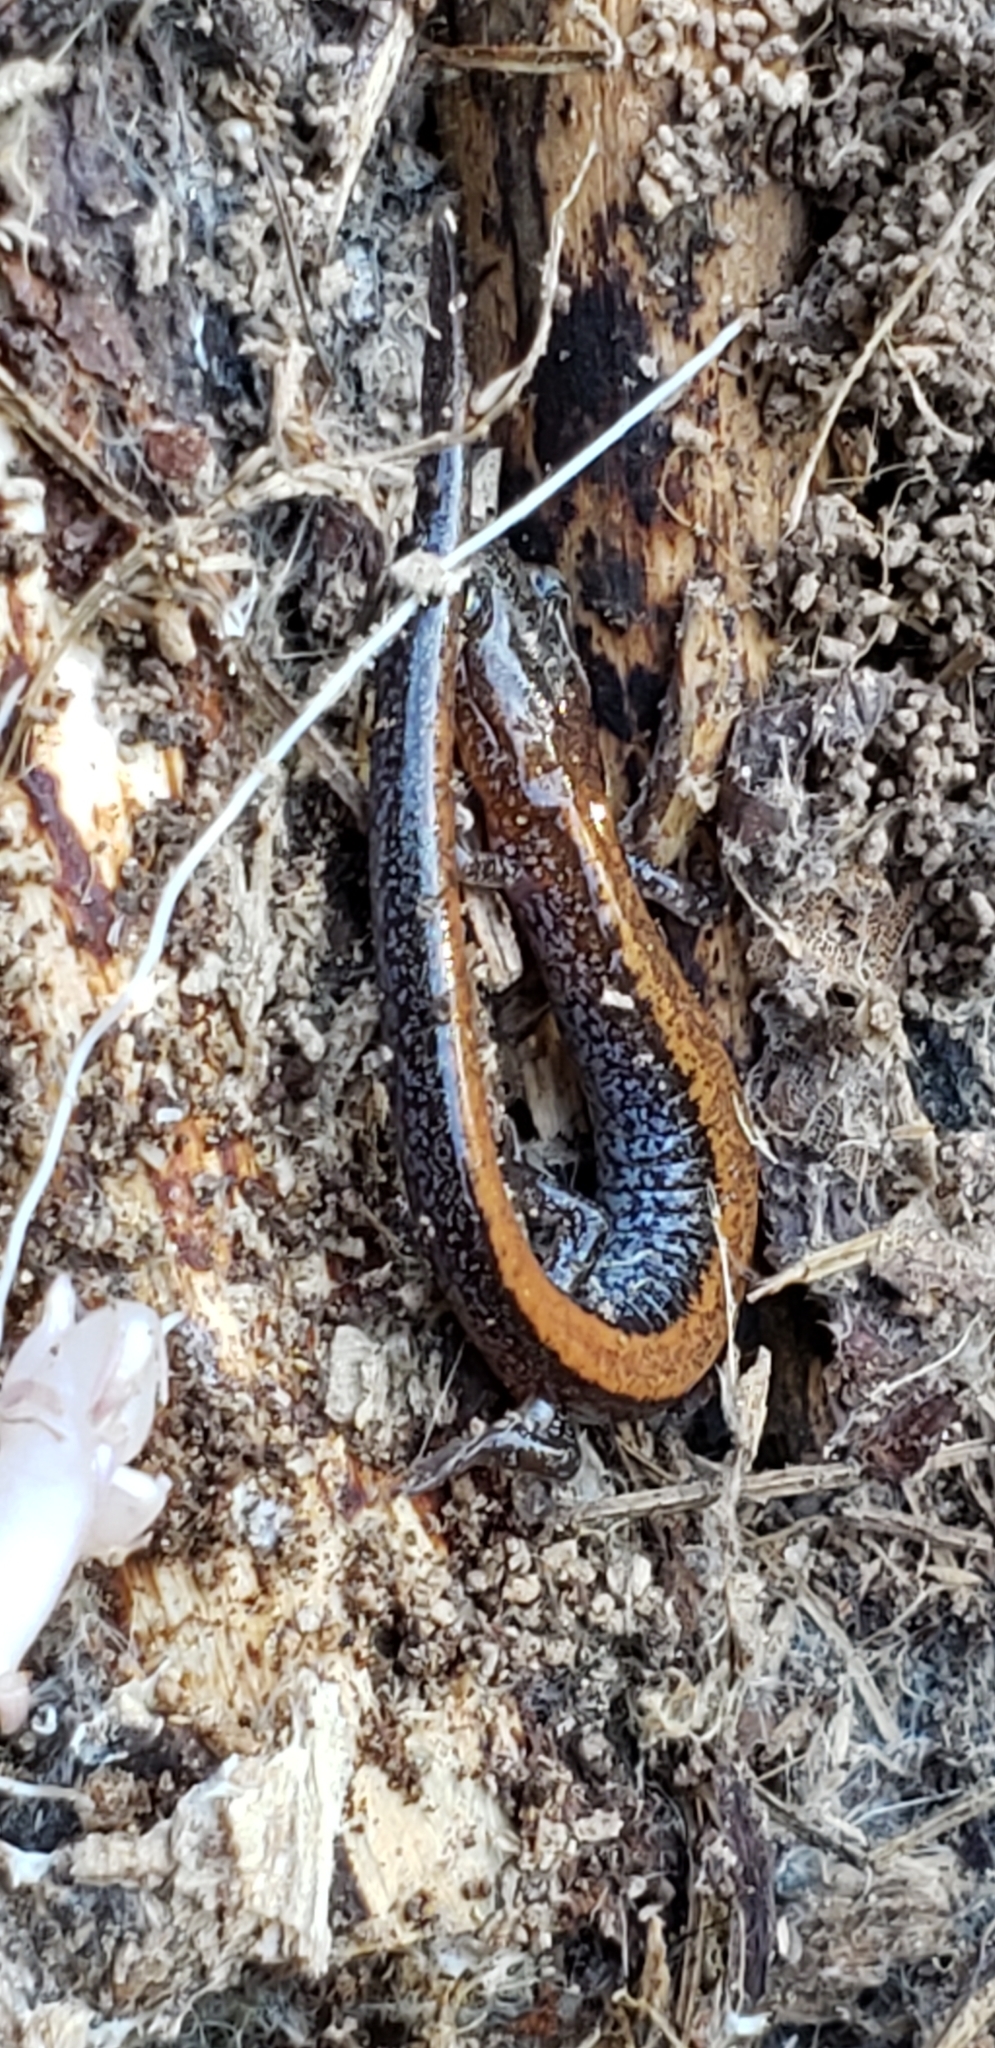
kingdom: Animalia
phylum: Chordata
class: Amphibia
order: Caudata
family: Plethodontidae
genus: Plethodon
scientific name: Plethodon cinereus
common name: Redback salamander
